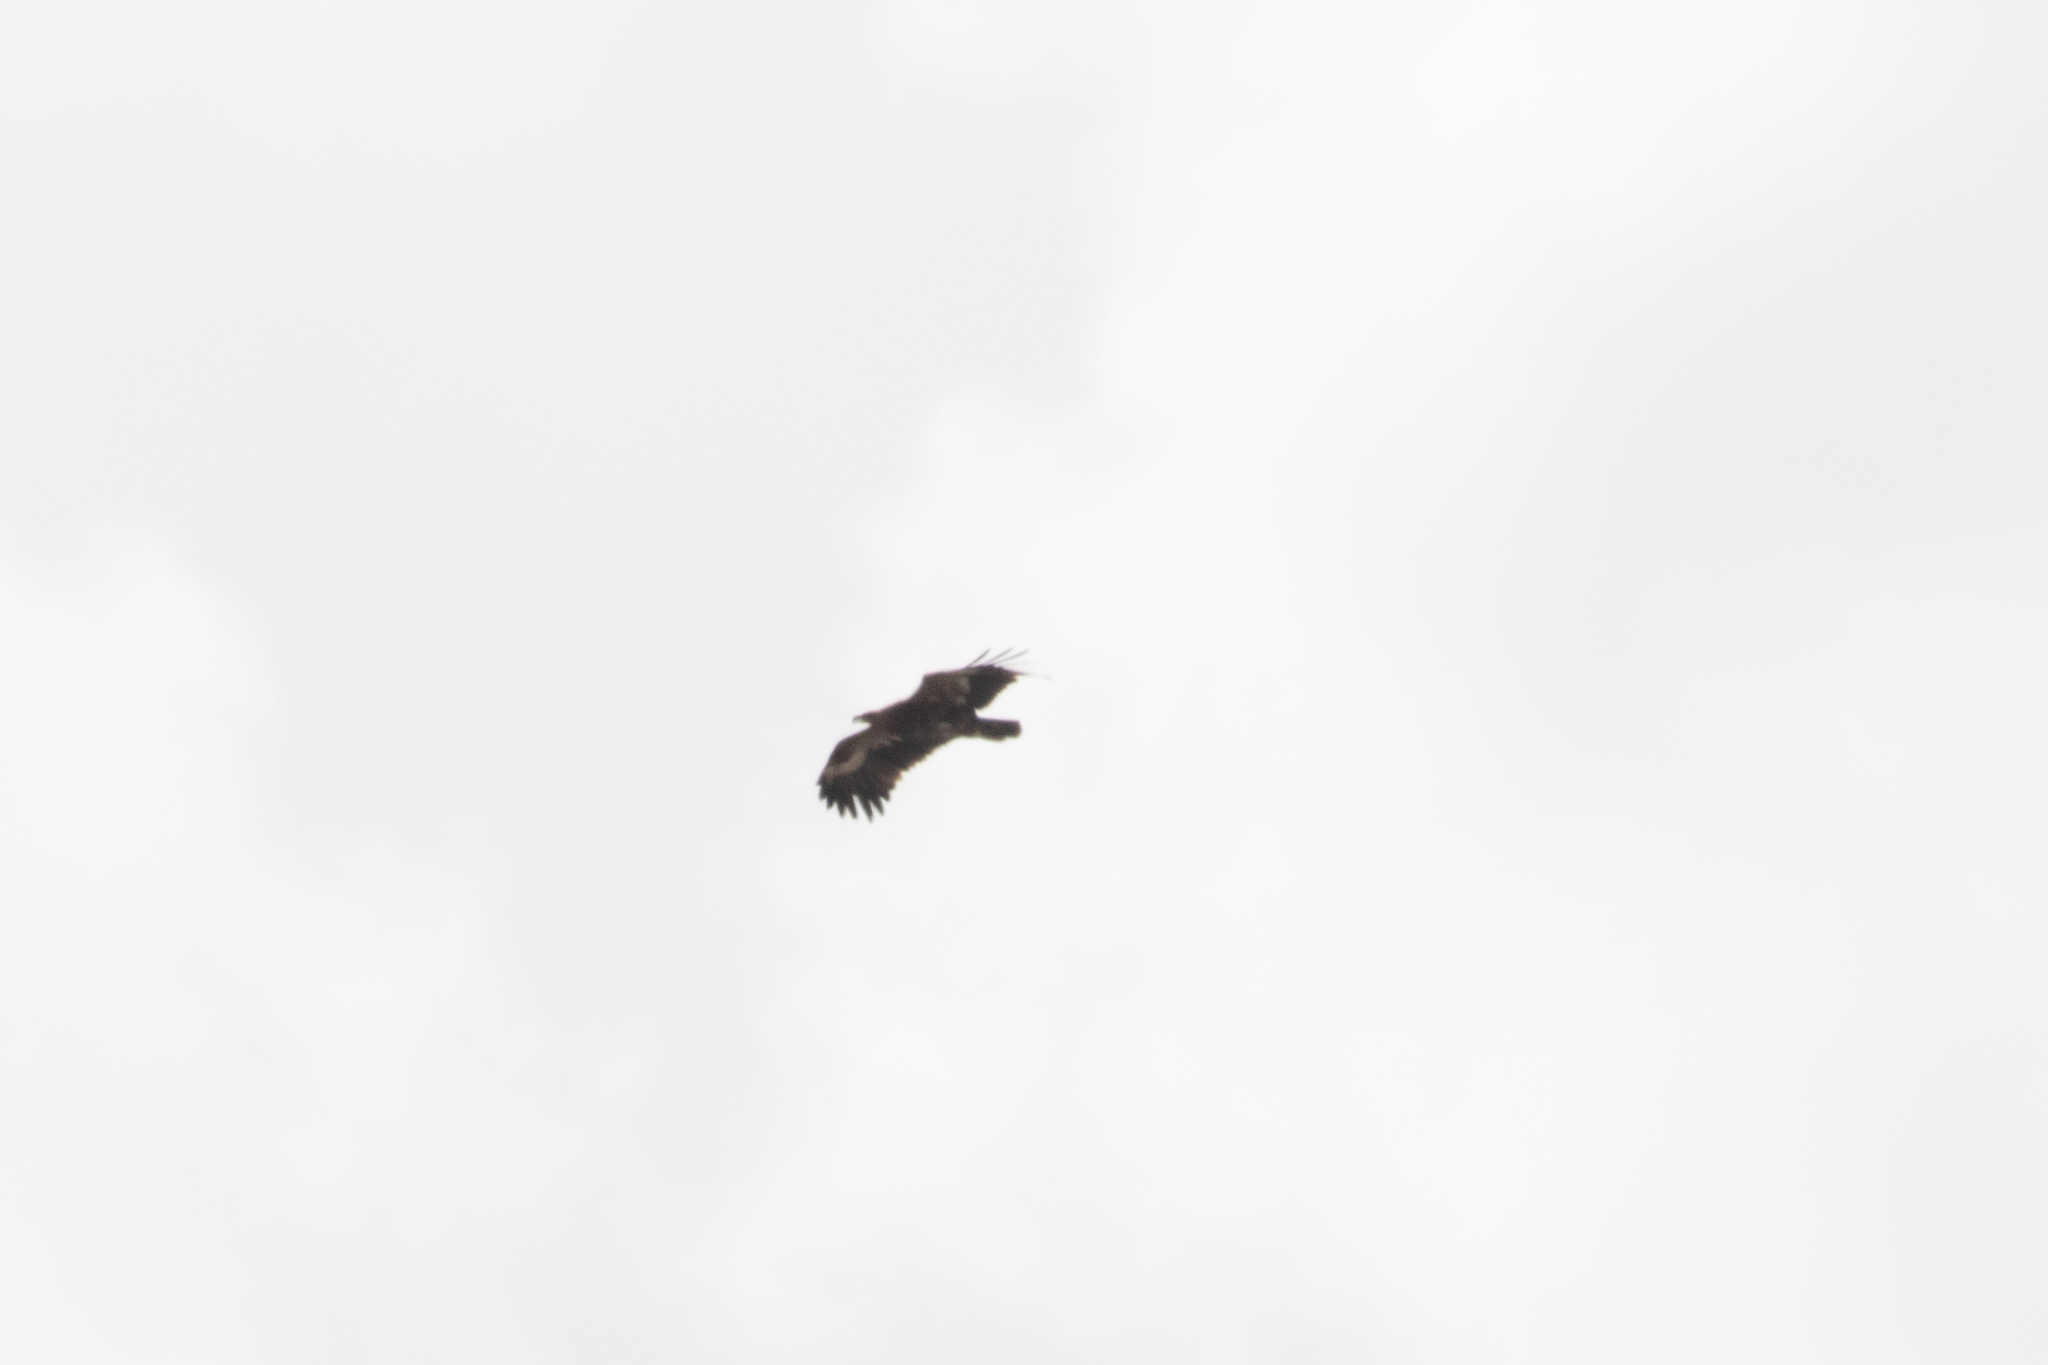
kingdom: Animalia
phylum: Chordata
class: Aves
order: Accipitriformes
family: Accipitridae
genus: Aquila
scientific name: Aquila nipalensis
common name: Steppe eagle
